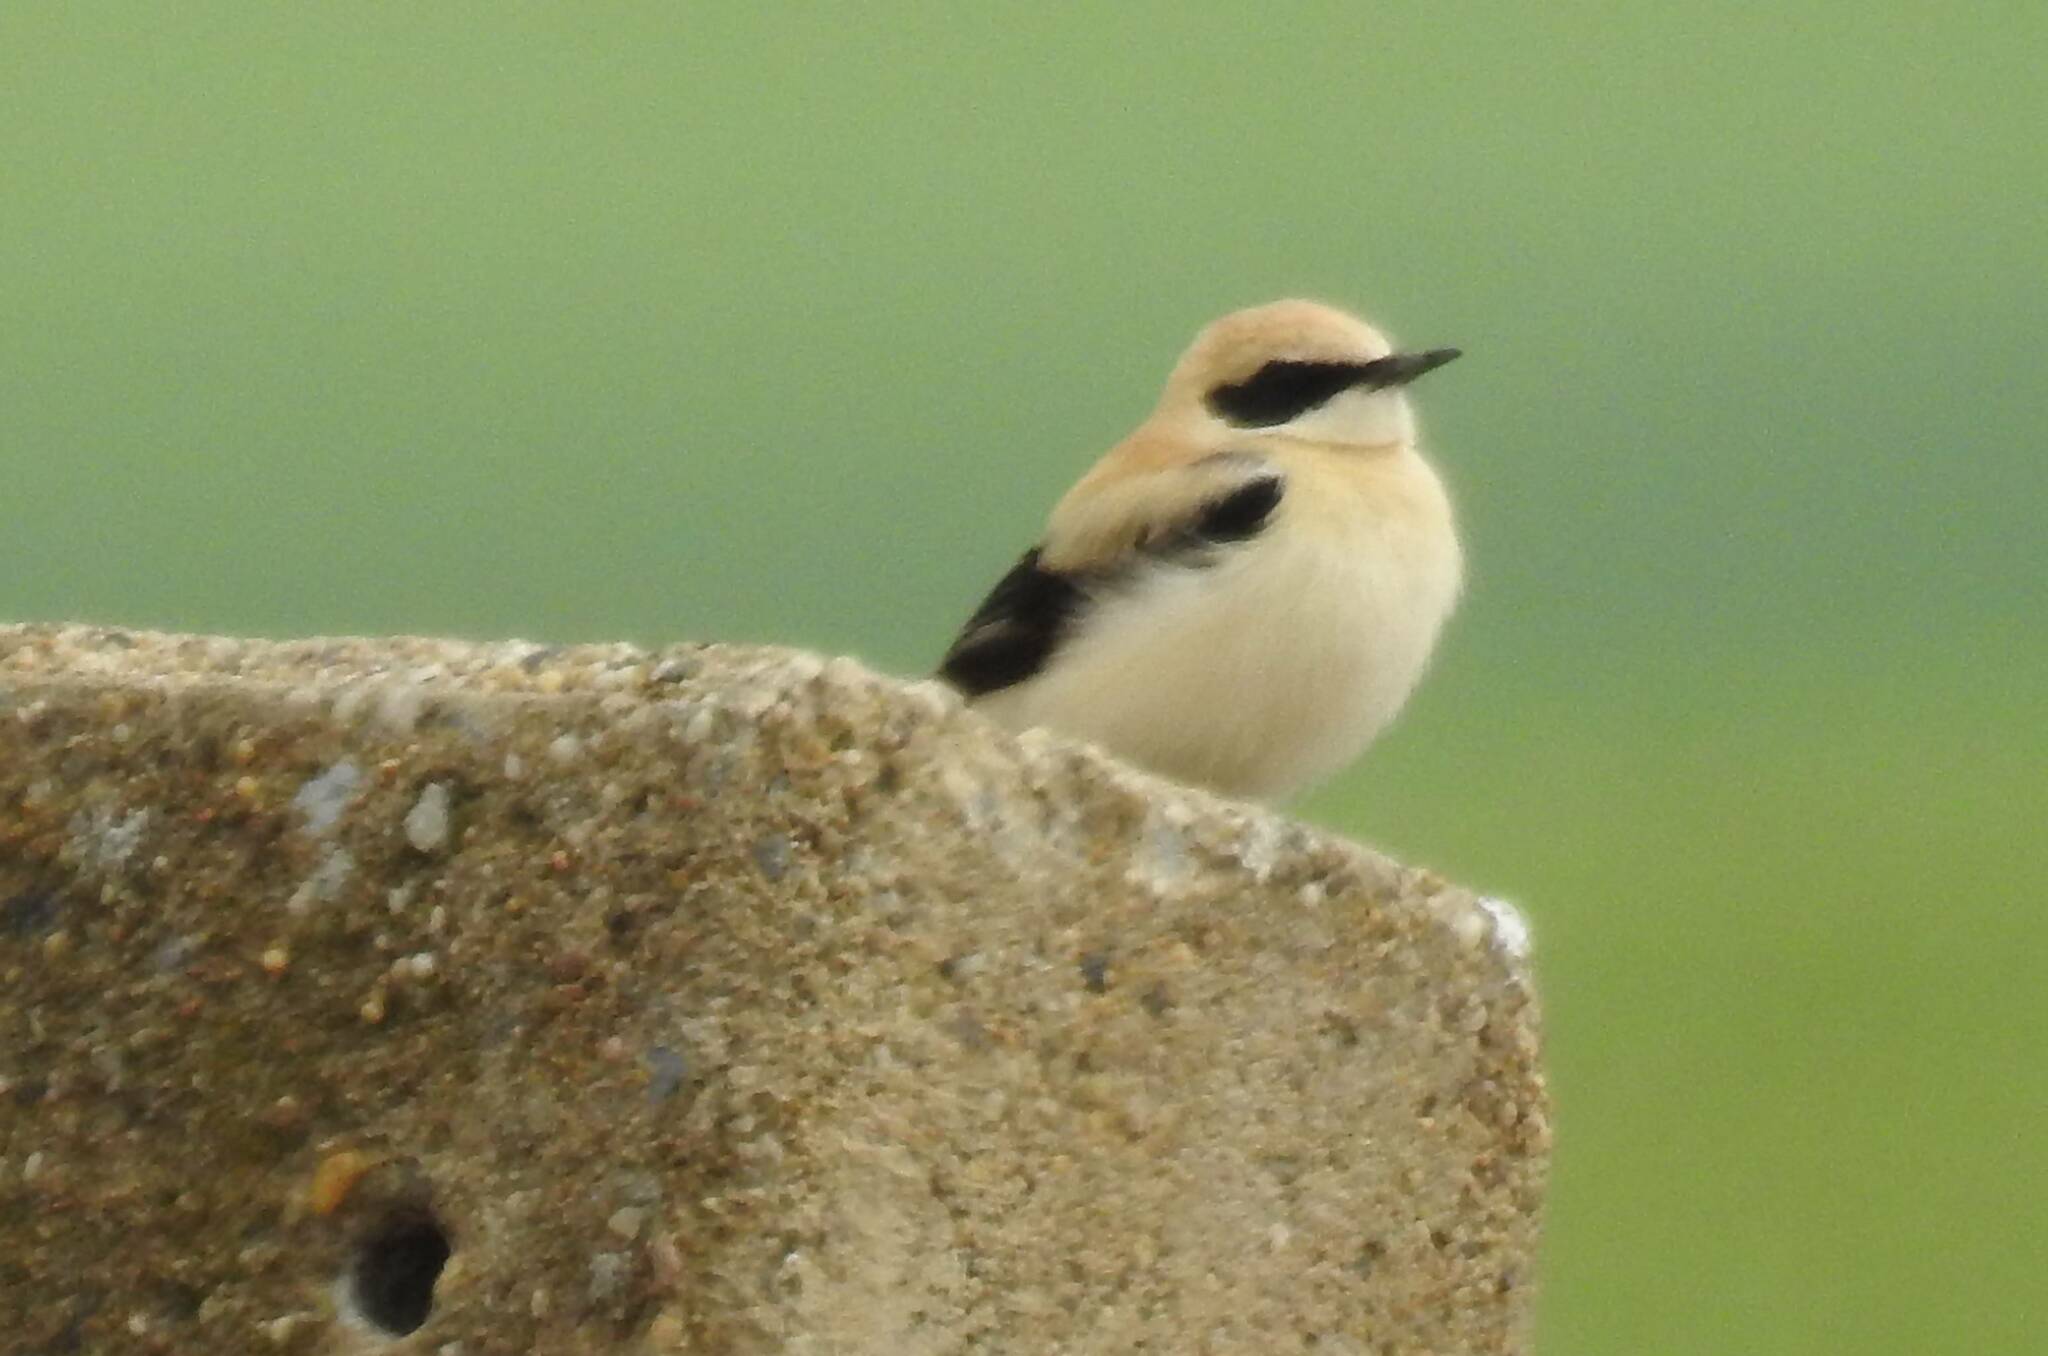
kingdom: Animalia
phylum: Chordata
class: Aves
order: Passeriformes
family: Muscicapidae
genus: Oenanthe
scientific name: Oenanthe hispanica
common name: Black-eared wheatear
